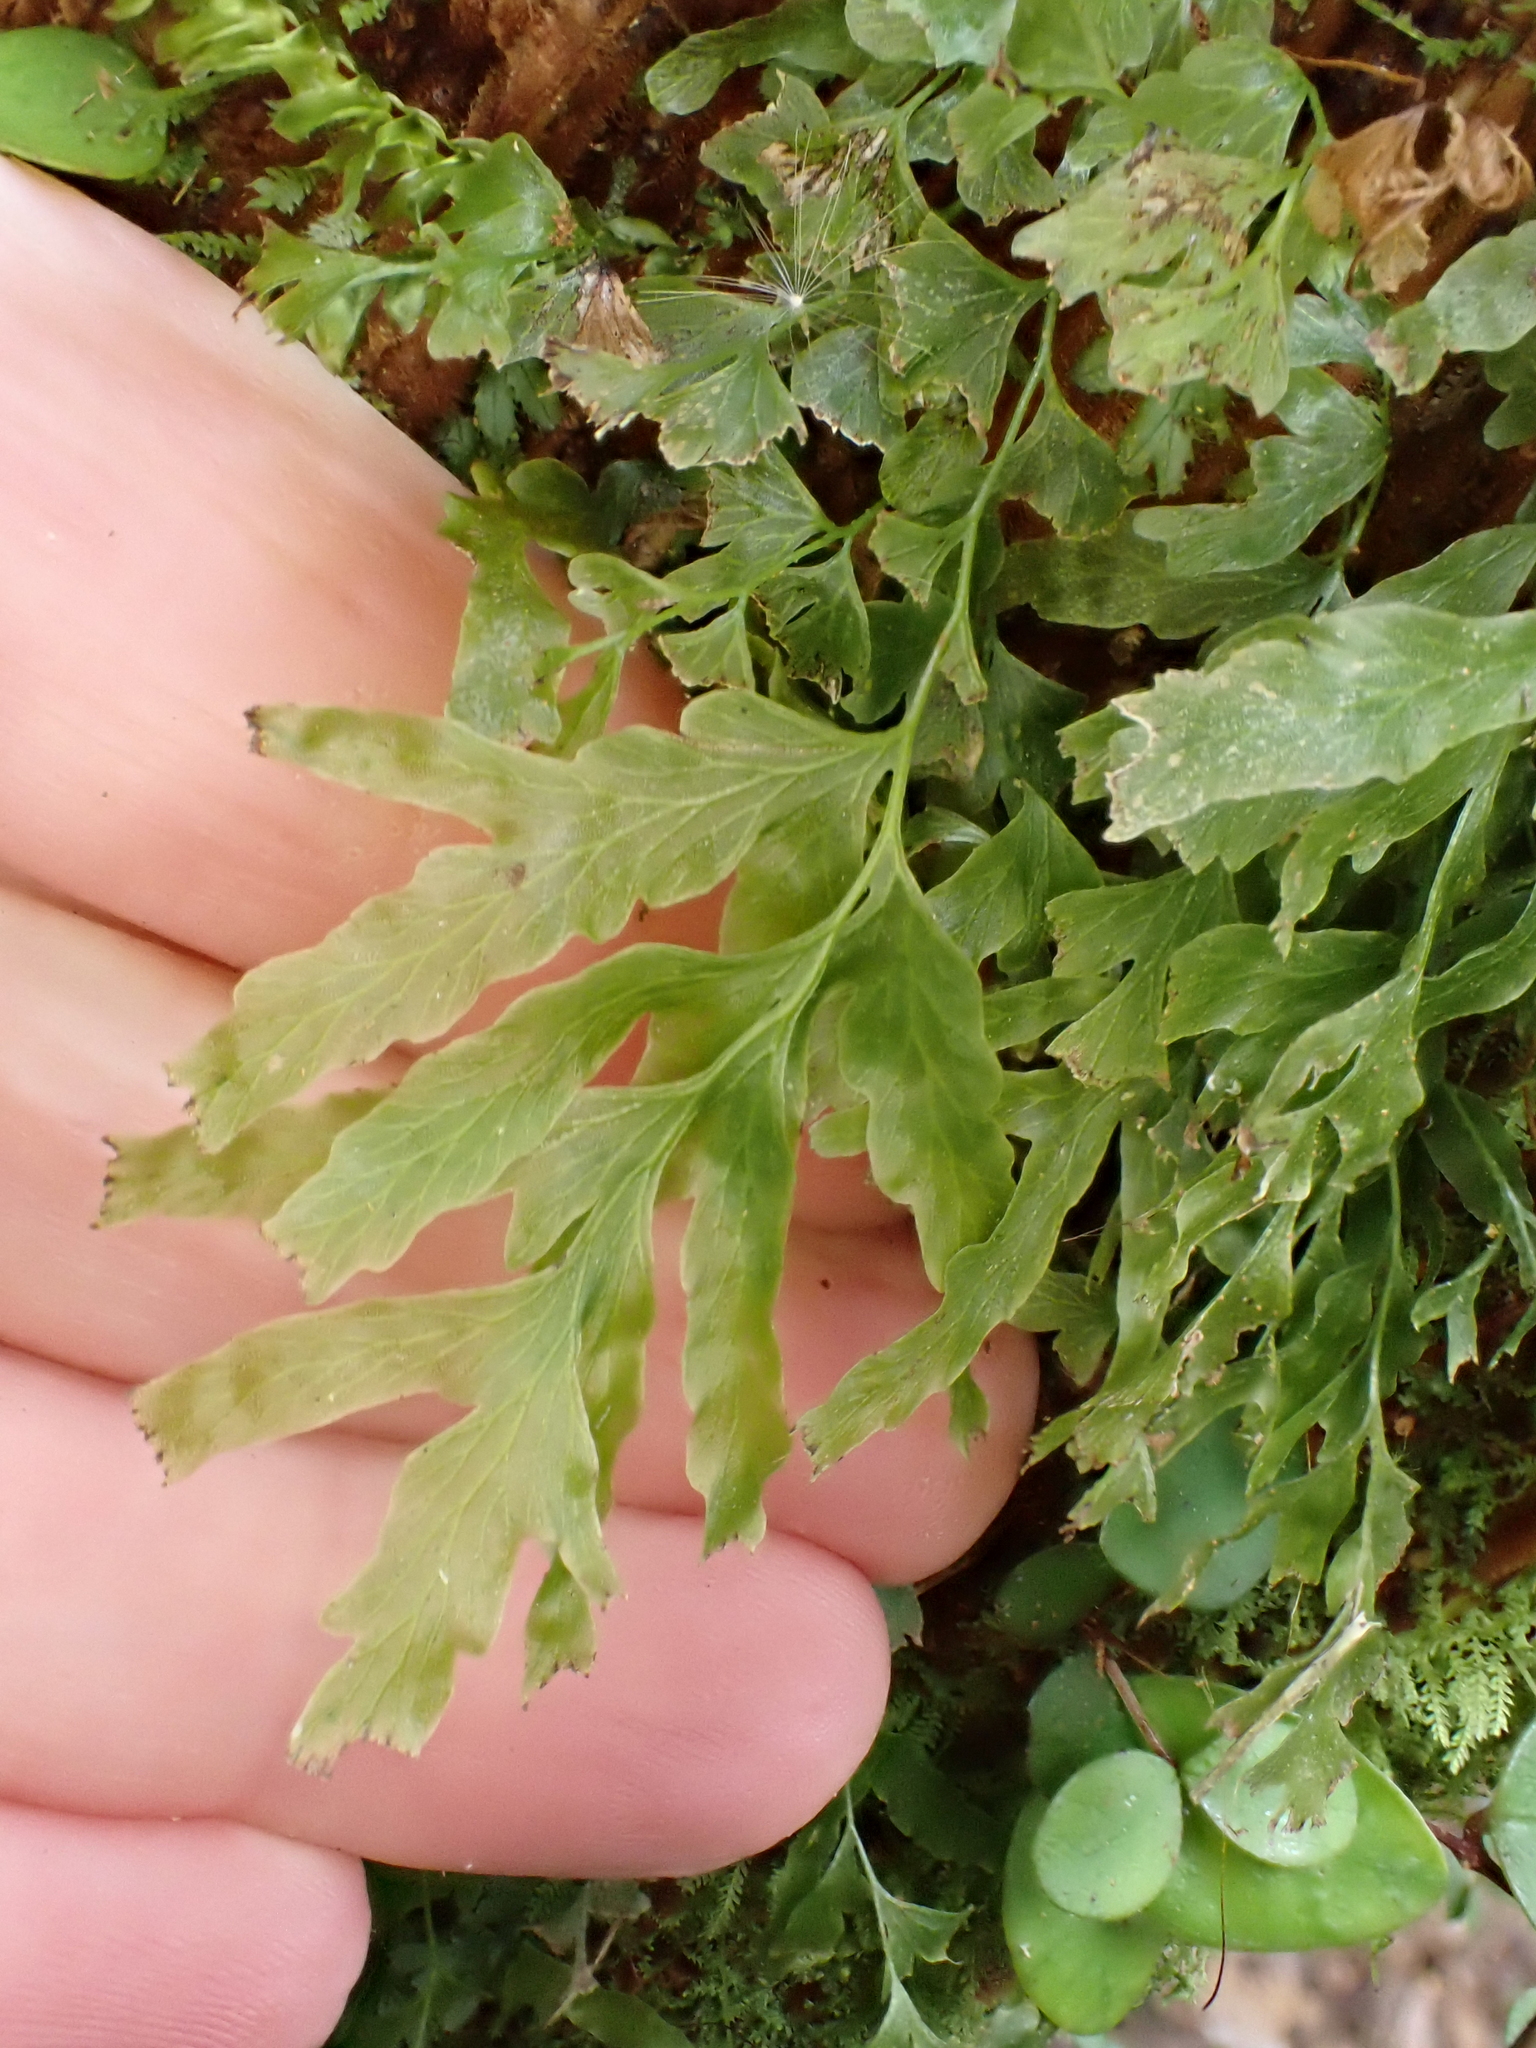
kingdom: Plantae
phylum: Tracheophyta
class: Polypodiopsida
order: Hymenophyllales
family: Hymenophyllaceae
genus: Polyphlebium
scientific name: Polyphlebium venosum
